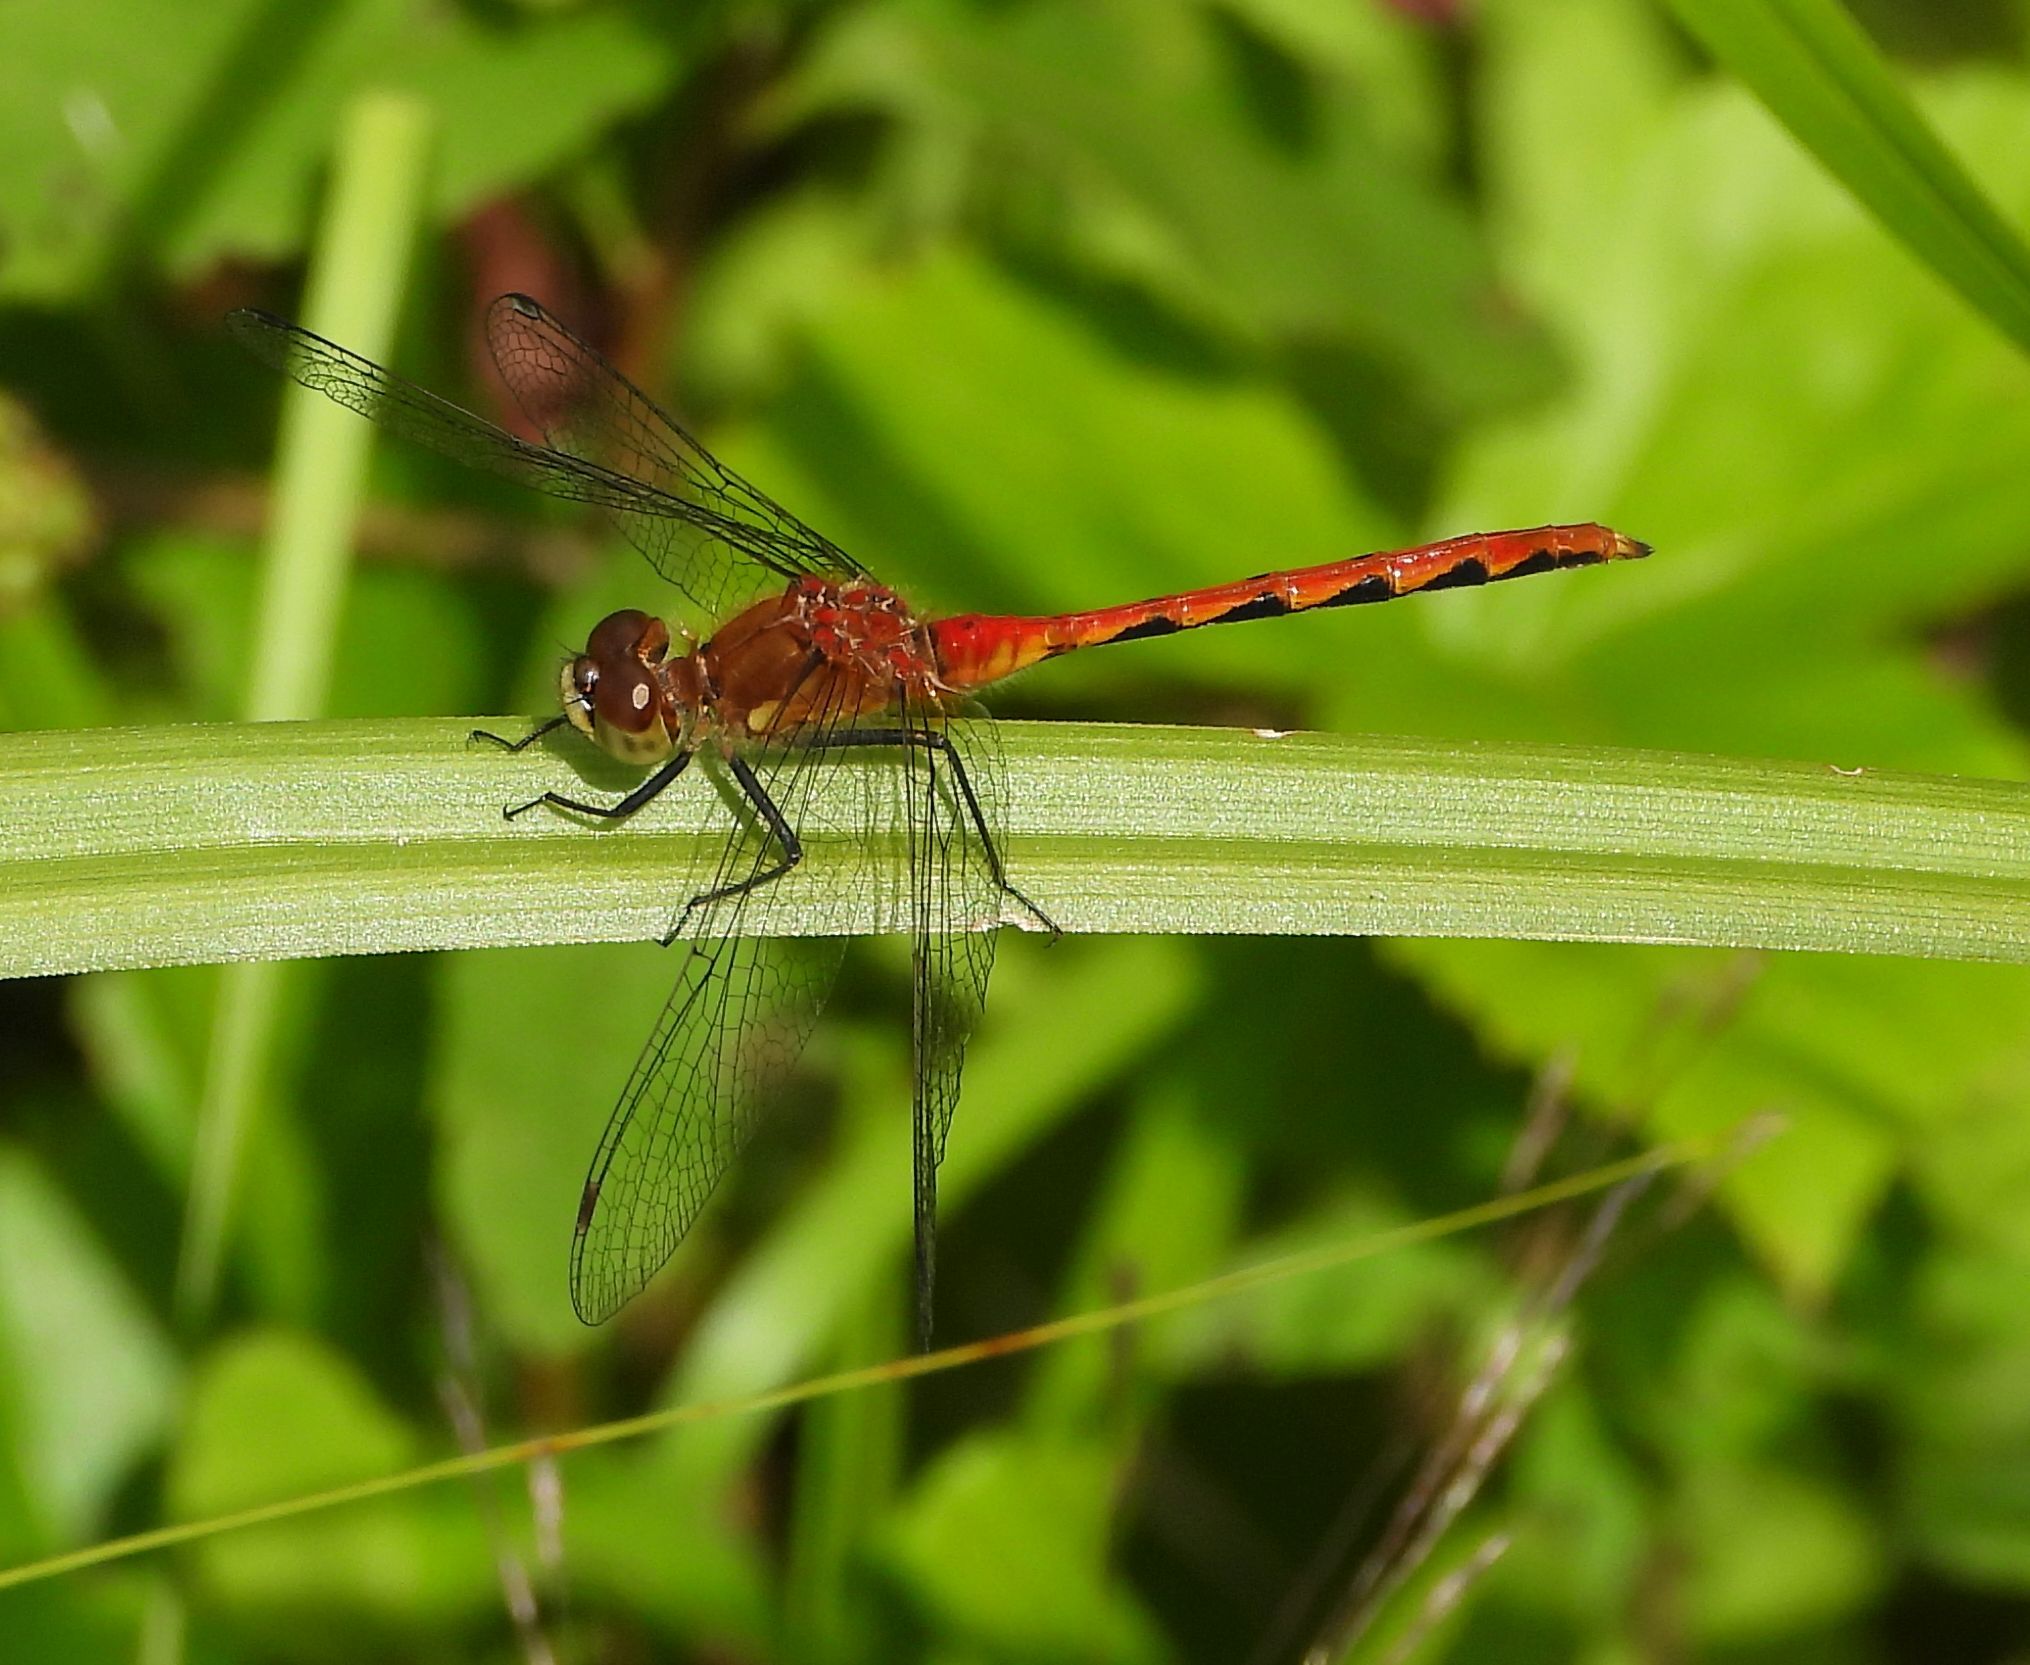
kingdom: Animalia
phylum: Arthropoda
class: Insecta
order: Odonata
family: Libellulidae
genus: Sympetrum
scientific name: Sympetrum obtrusum
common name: White-faced meadowhawk
